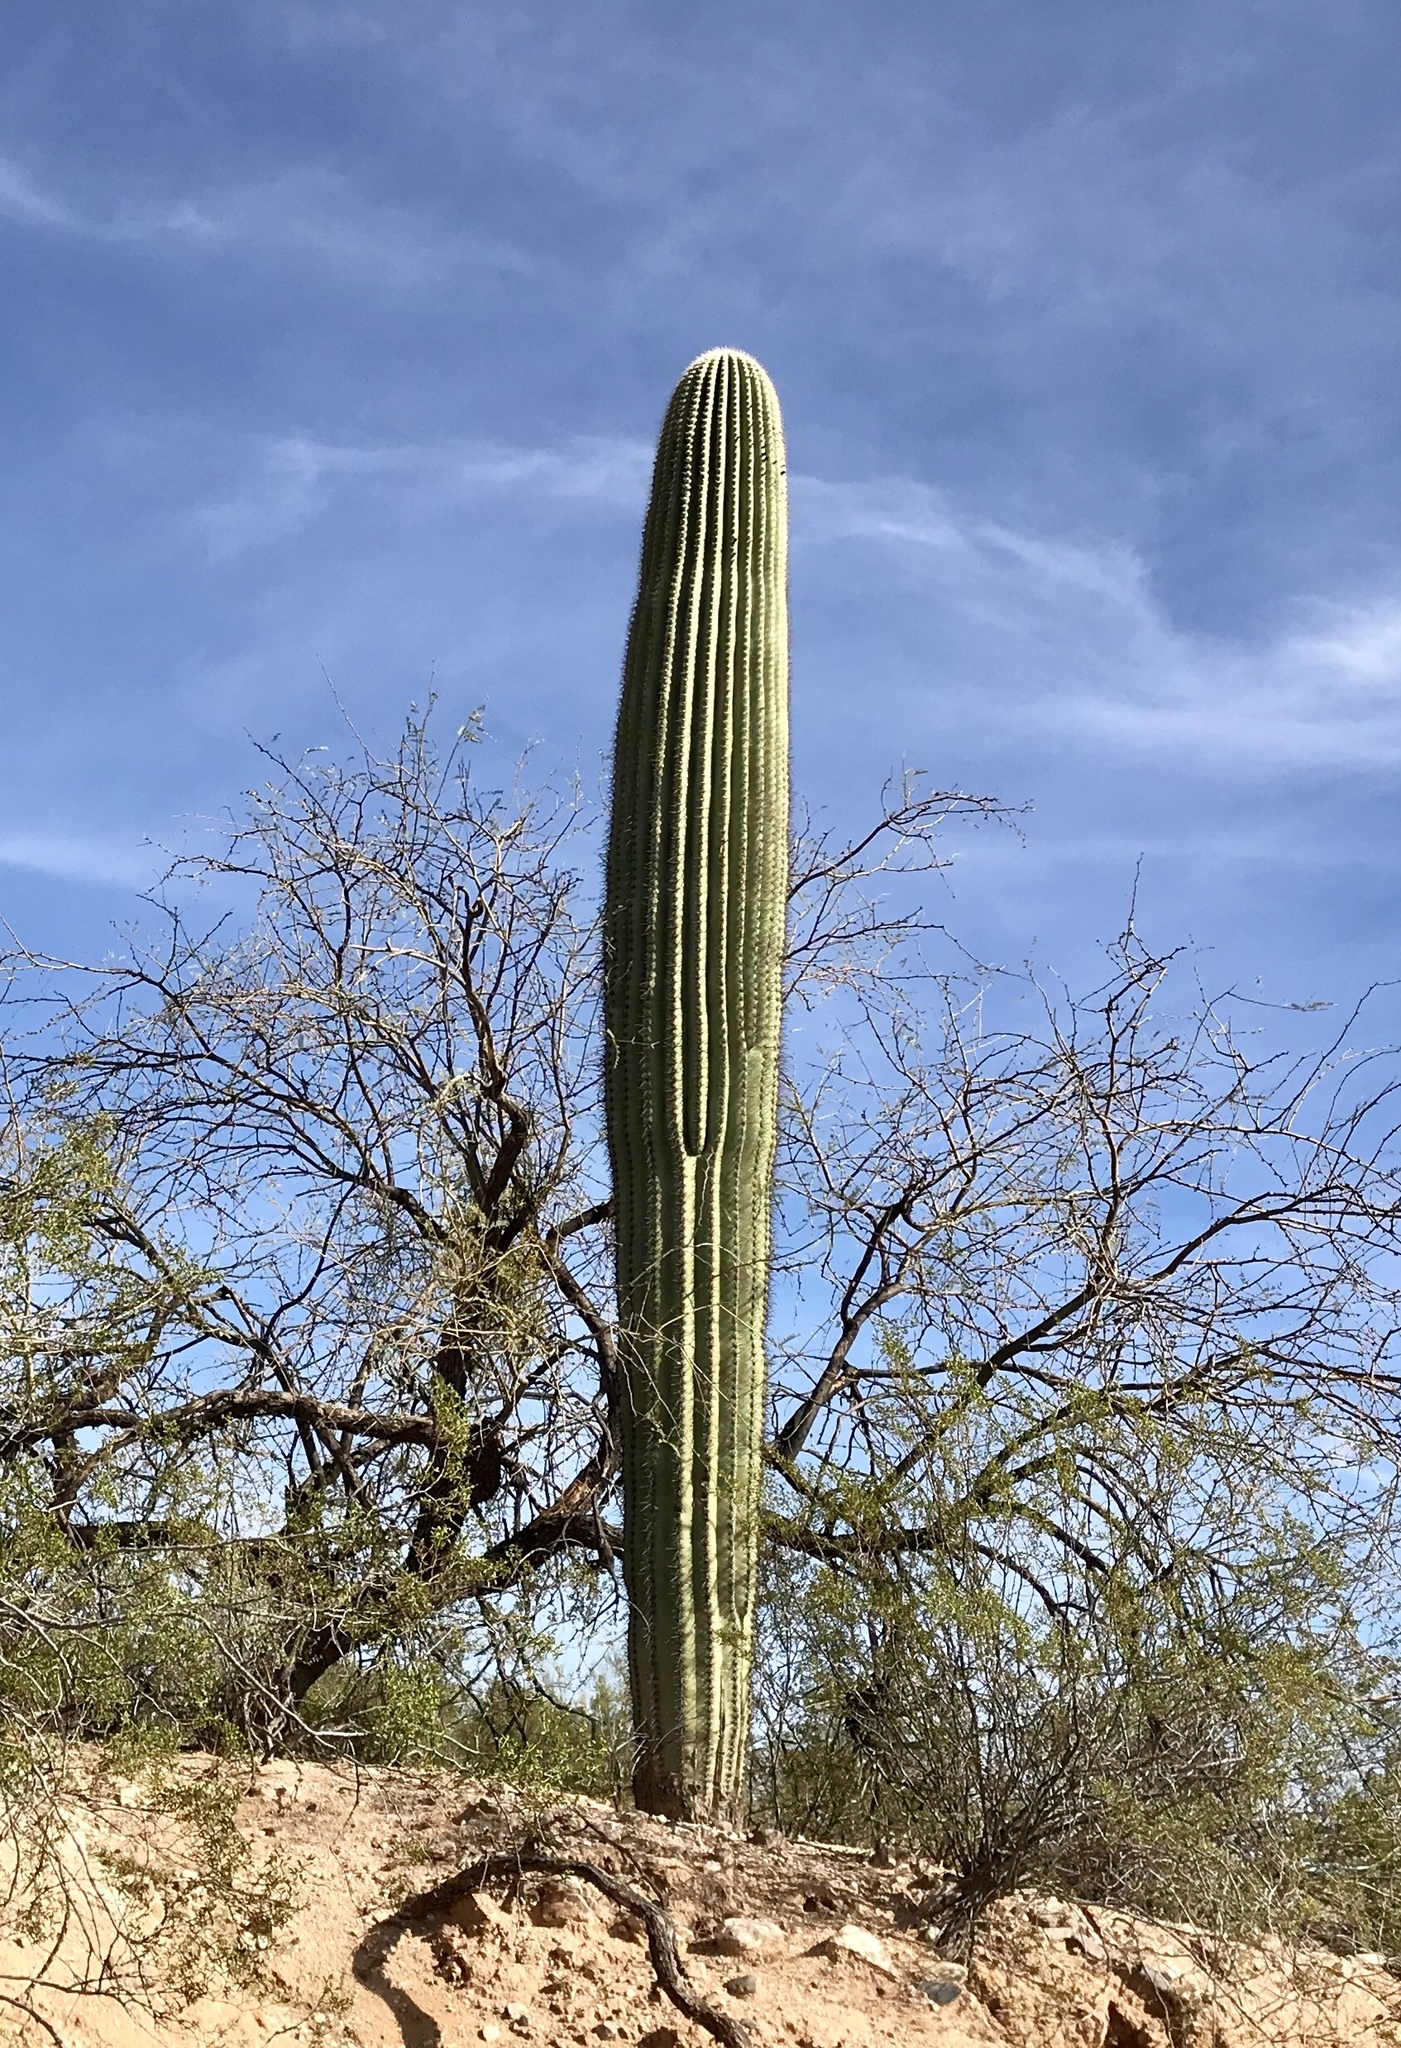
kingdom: Plantae
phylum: Tracheophyta
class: Magnoliopsida
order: Caryophyllales
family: Cactaceae
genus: Carnegiea
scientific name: Carnegiea gigantea
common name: Saguaro
